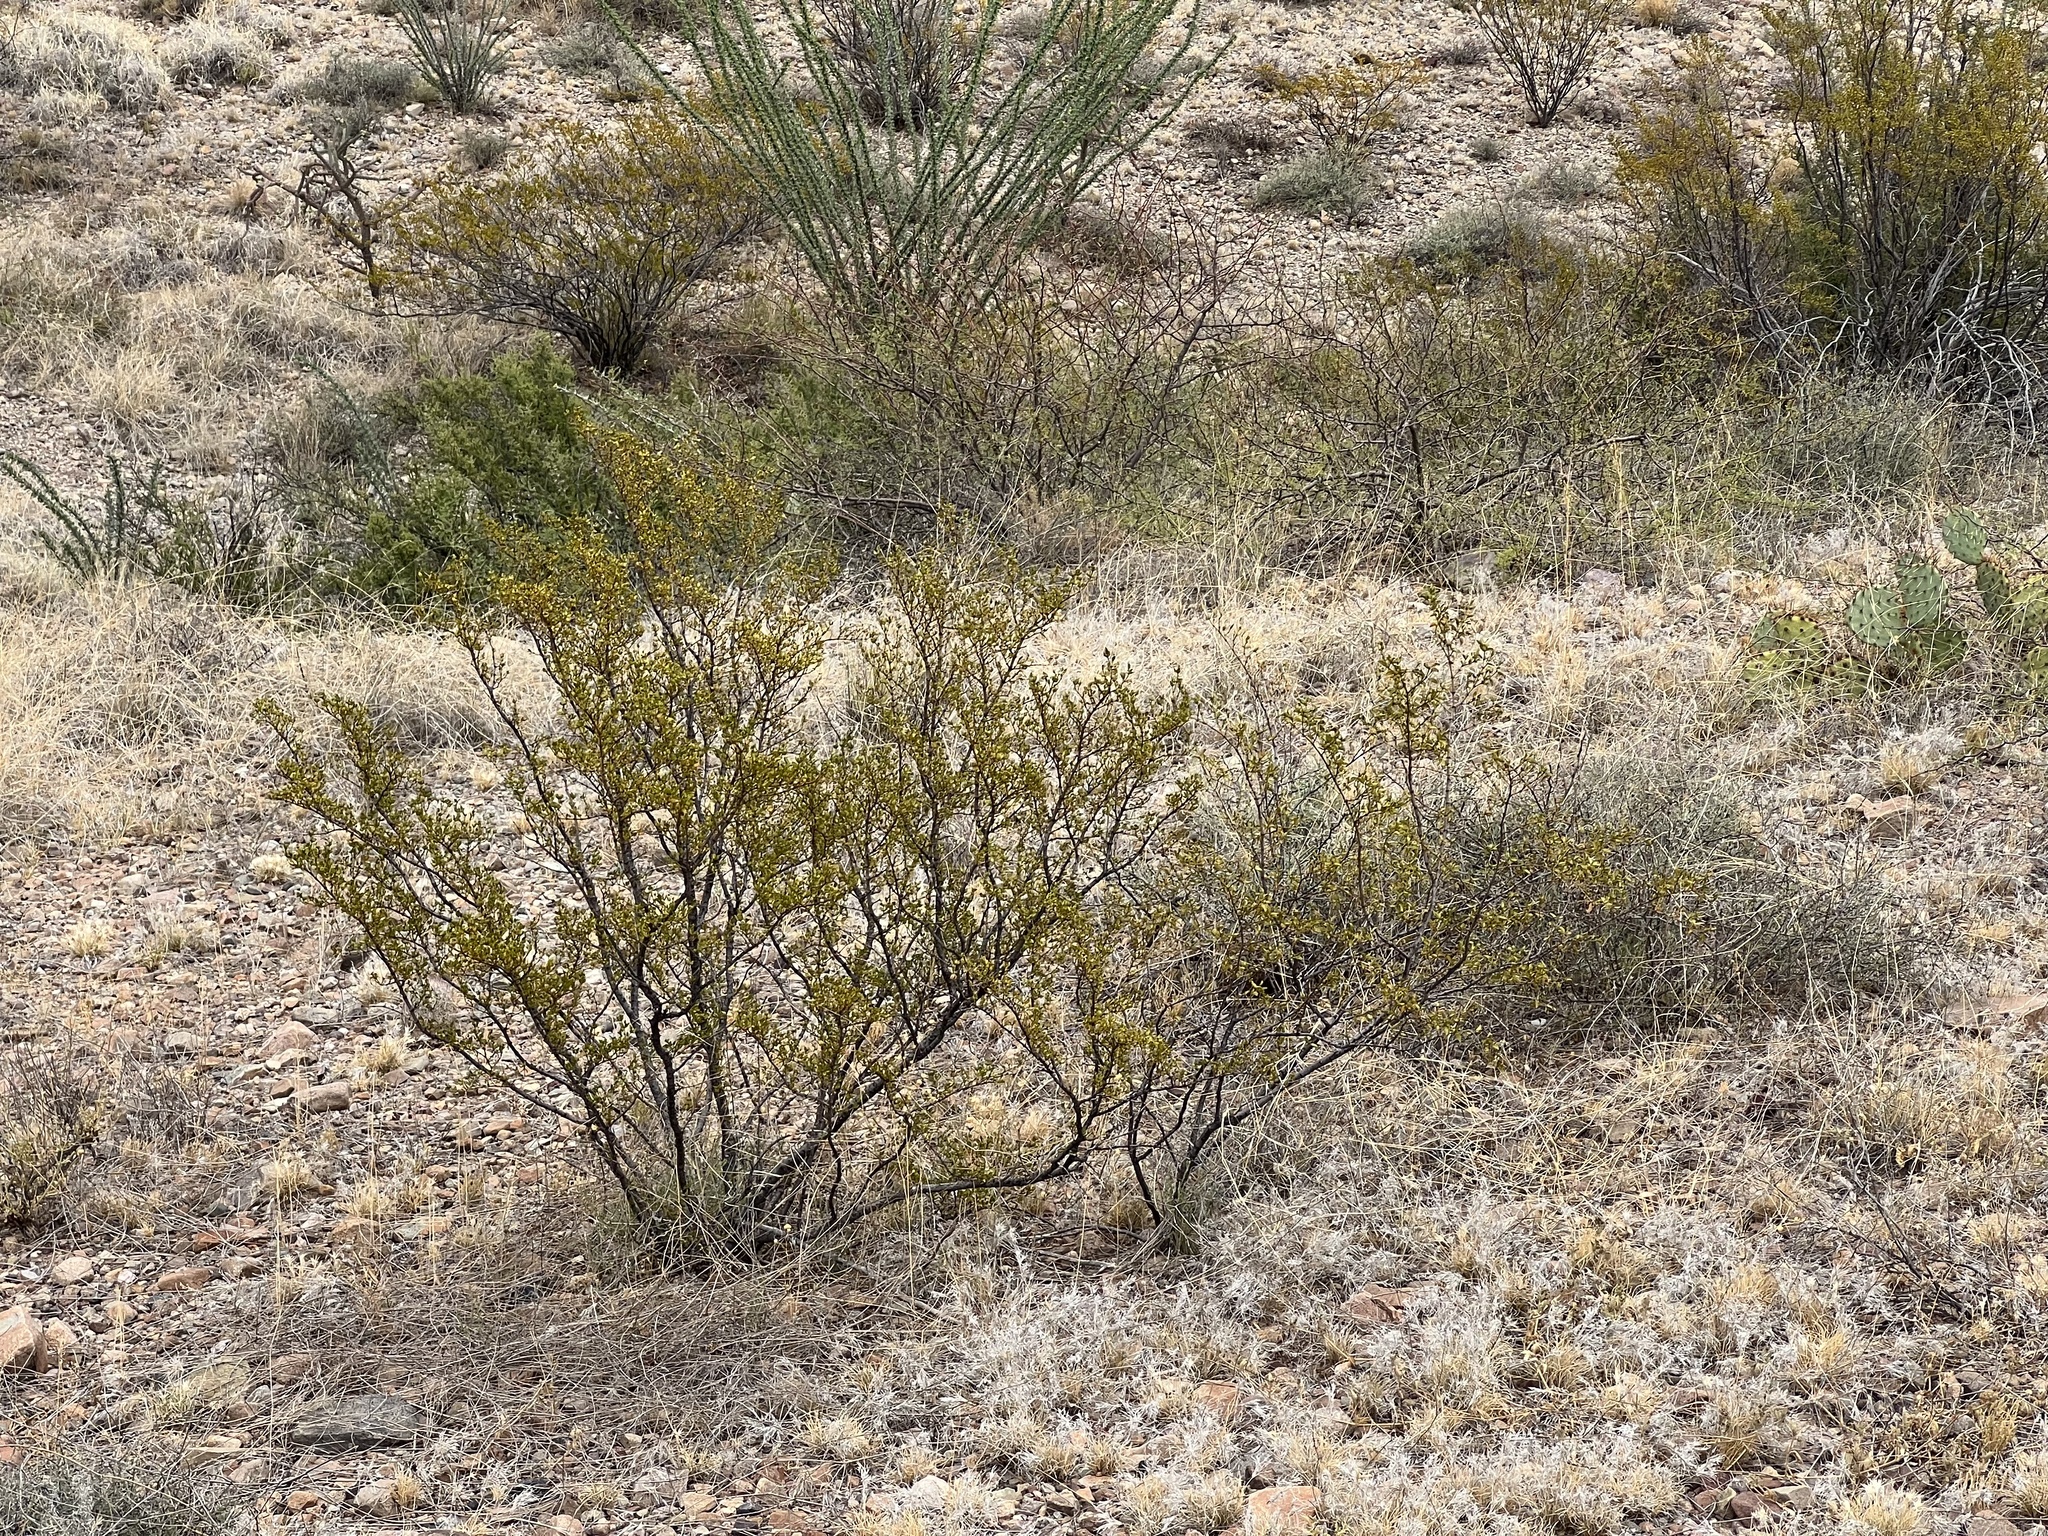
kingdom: Plantae
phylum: Tracheophyta
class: Magnoliopsida
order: Zygophyllales
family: Zygophyllaceae
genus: Larrea
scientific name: Larrea tridentata
